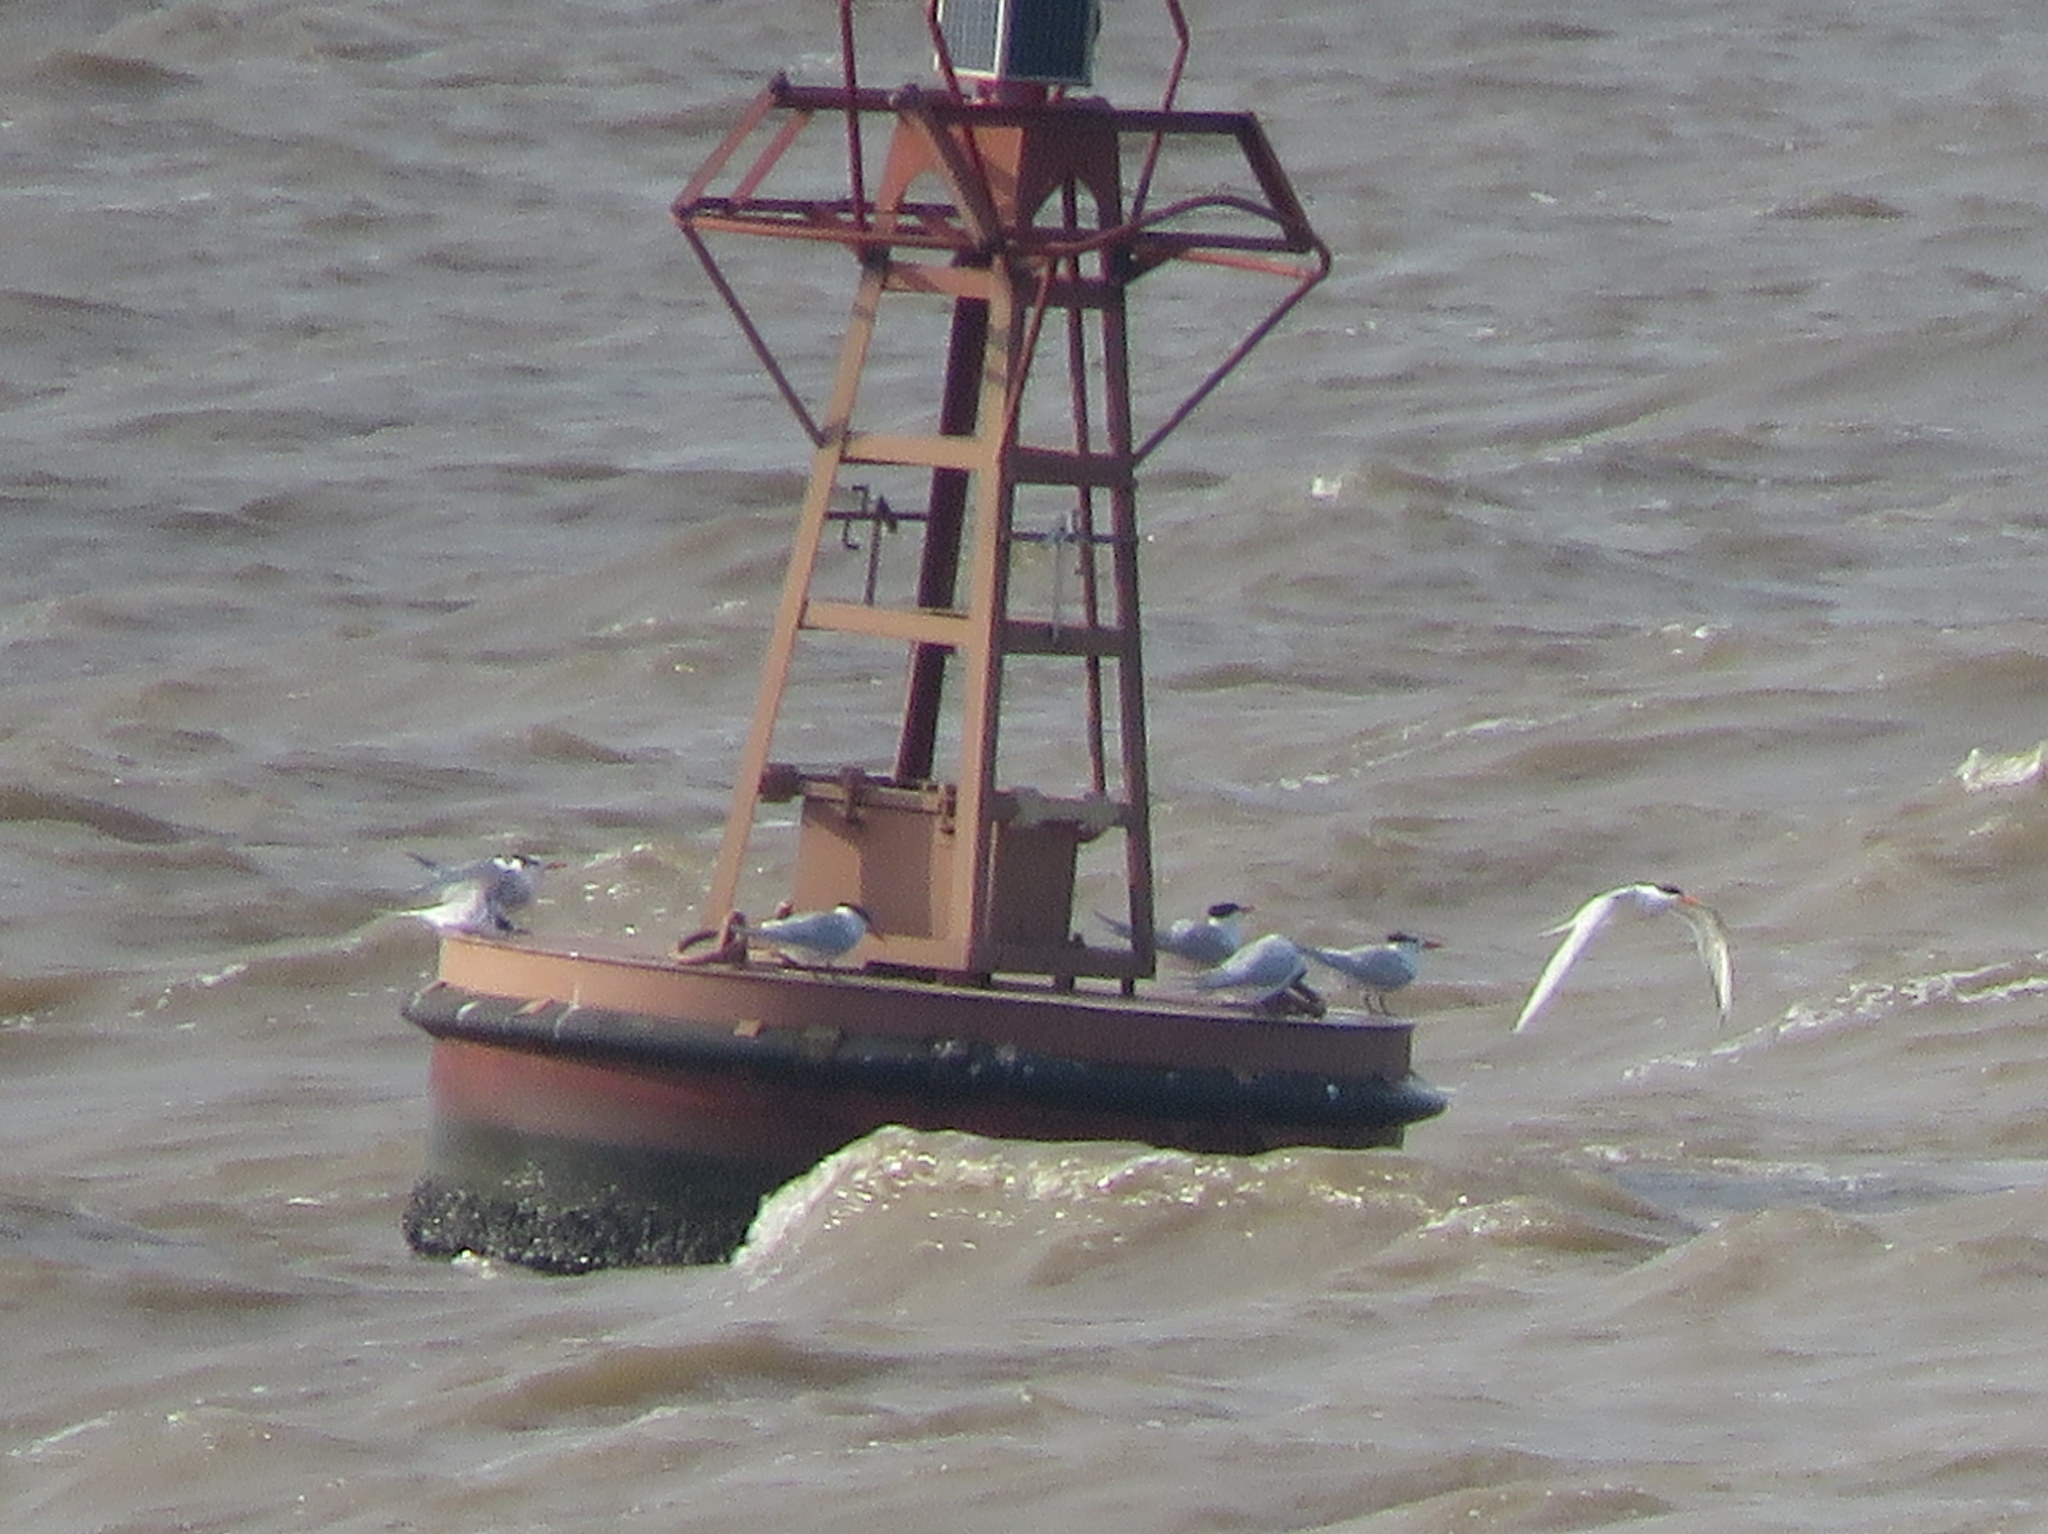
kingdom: Animalia
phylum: Chordata
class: Aves
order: Charadriiformes
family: Laridae
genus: Thalasseus
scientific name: Thalasseus maximus
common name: Royal tern
